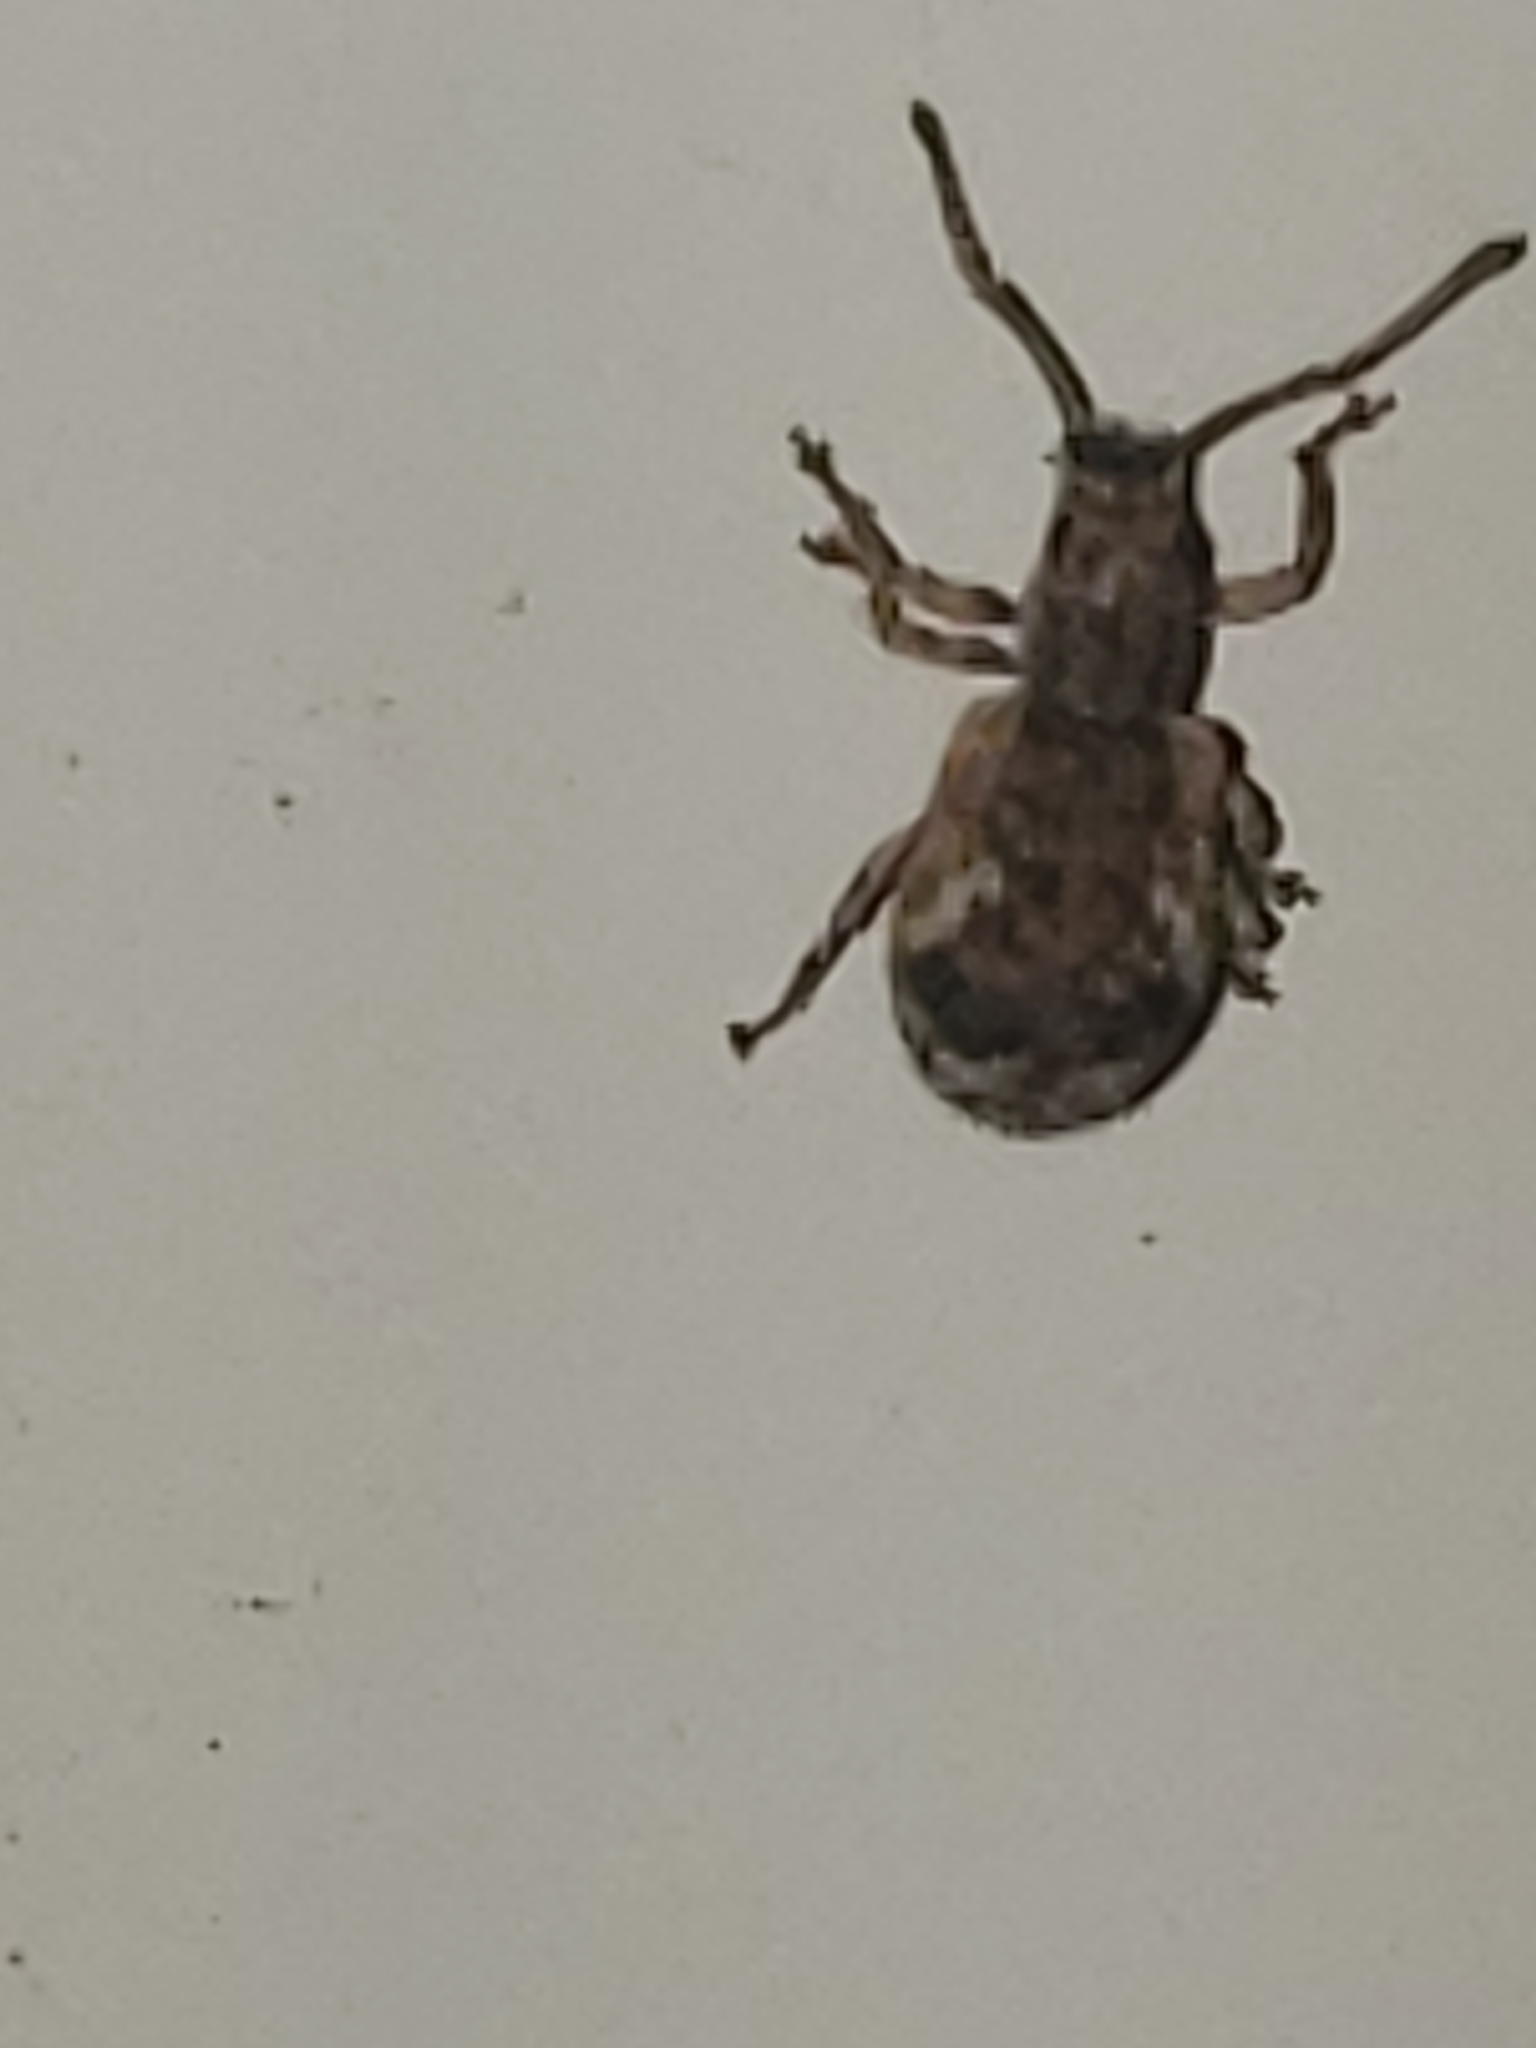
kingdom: Animalia
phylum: Arthropoda
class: Insecta
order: Coleoptera
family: Curculionidae
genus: Pseudoedophrys
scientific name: Pseudoedophrys hilleri
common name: Weevil
